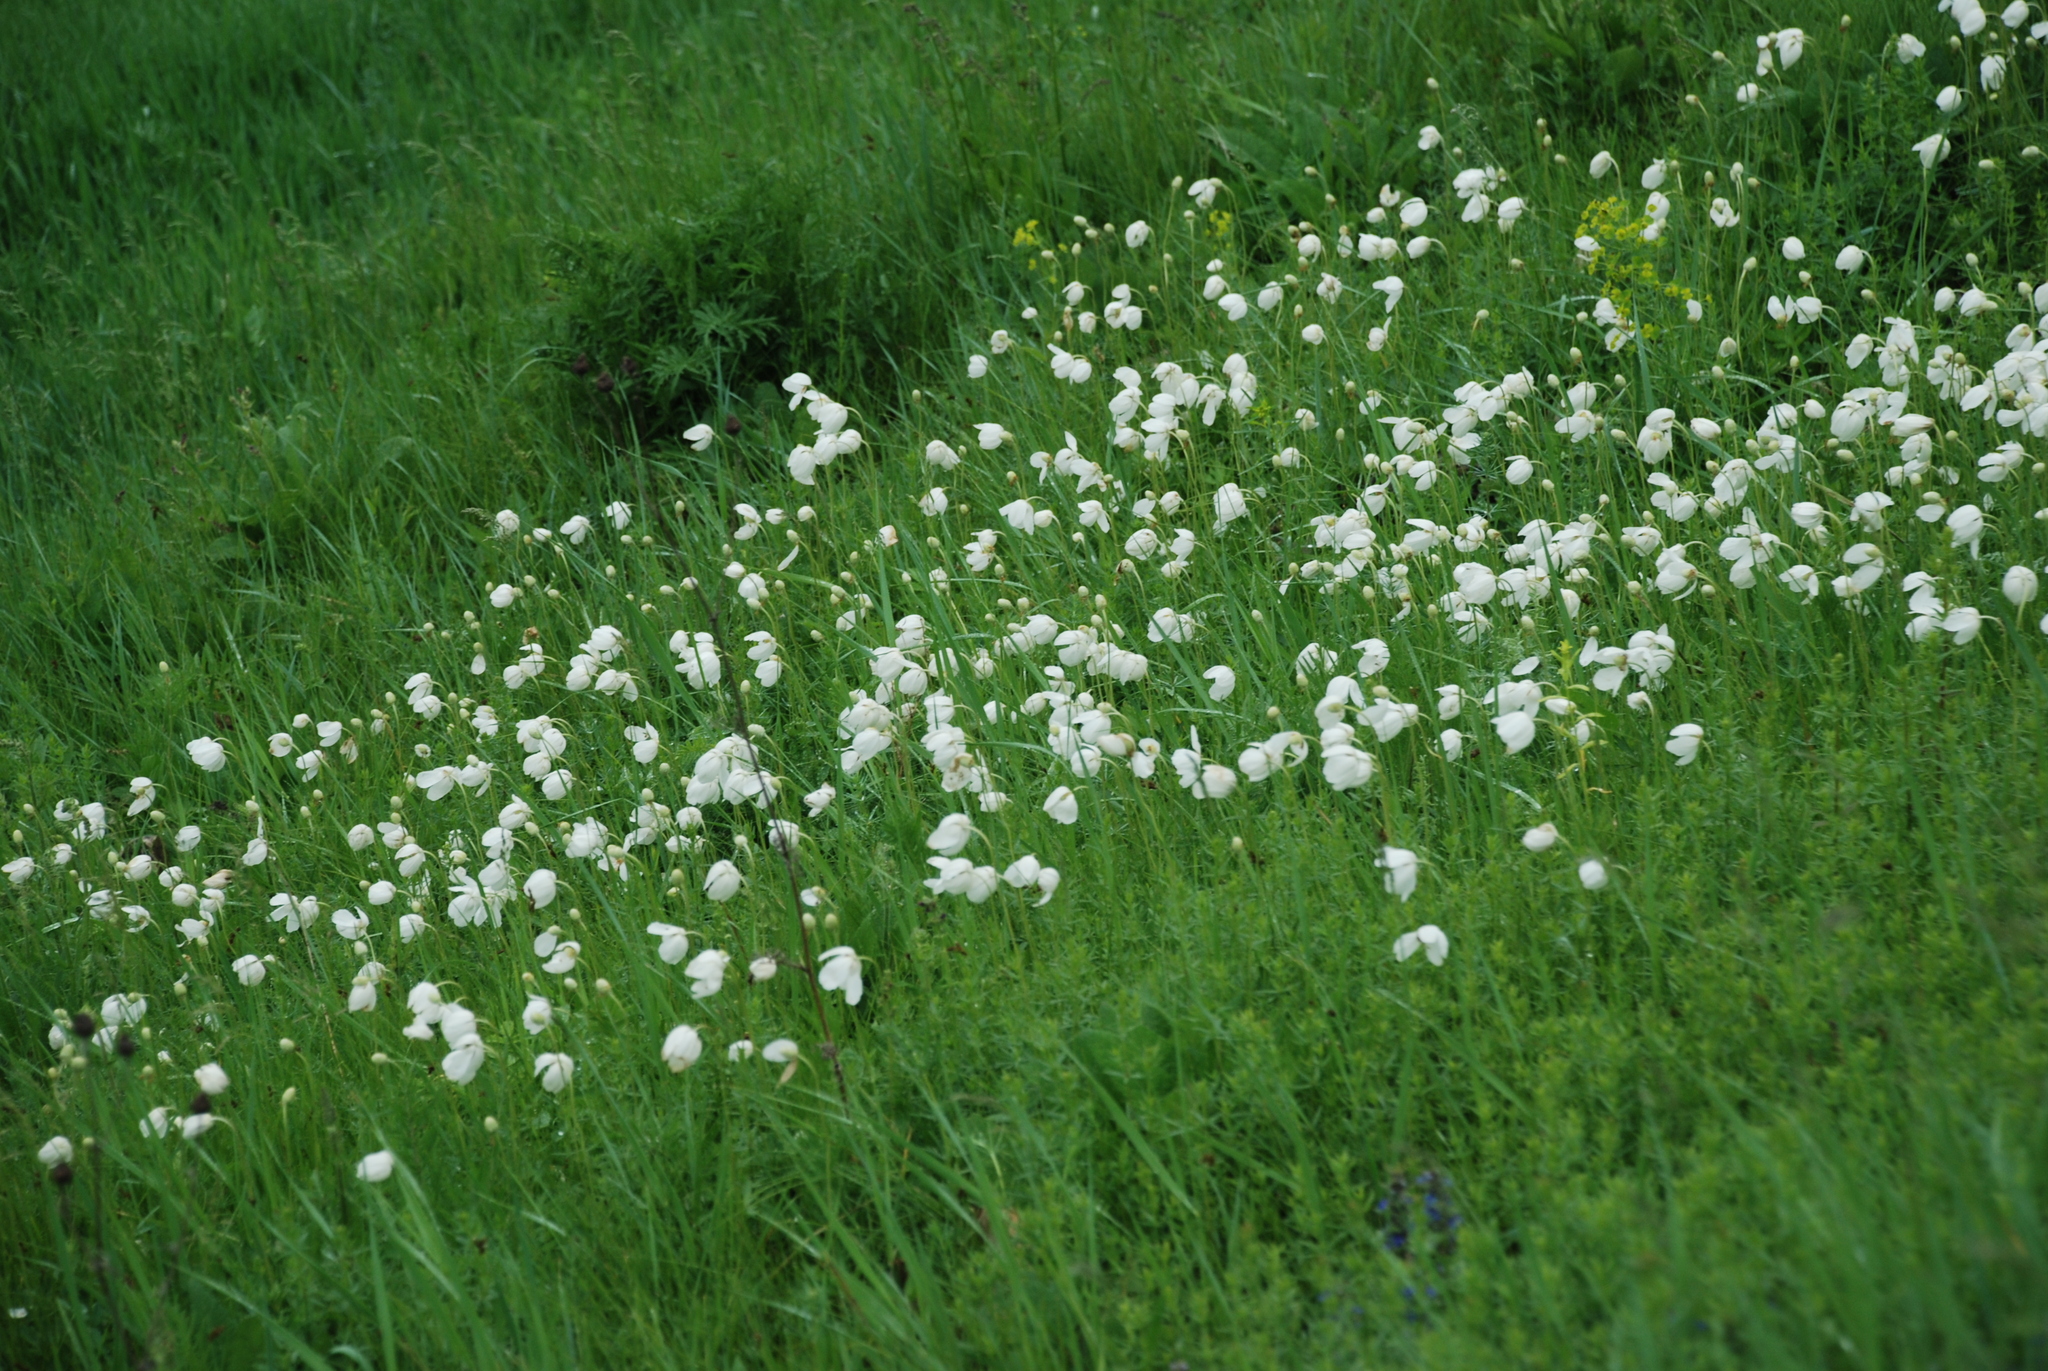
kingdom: Plantae
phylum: Tracheophyta
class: Magnoliopsida
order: Ranunculales
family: Ranunculaceae
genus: Anemone
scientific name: Anemone sylvestris
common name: Snowdrop anemone
